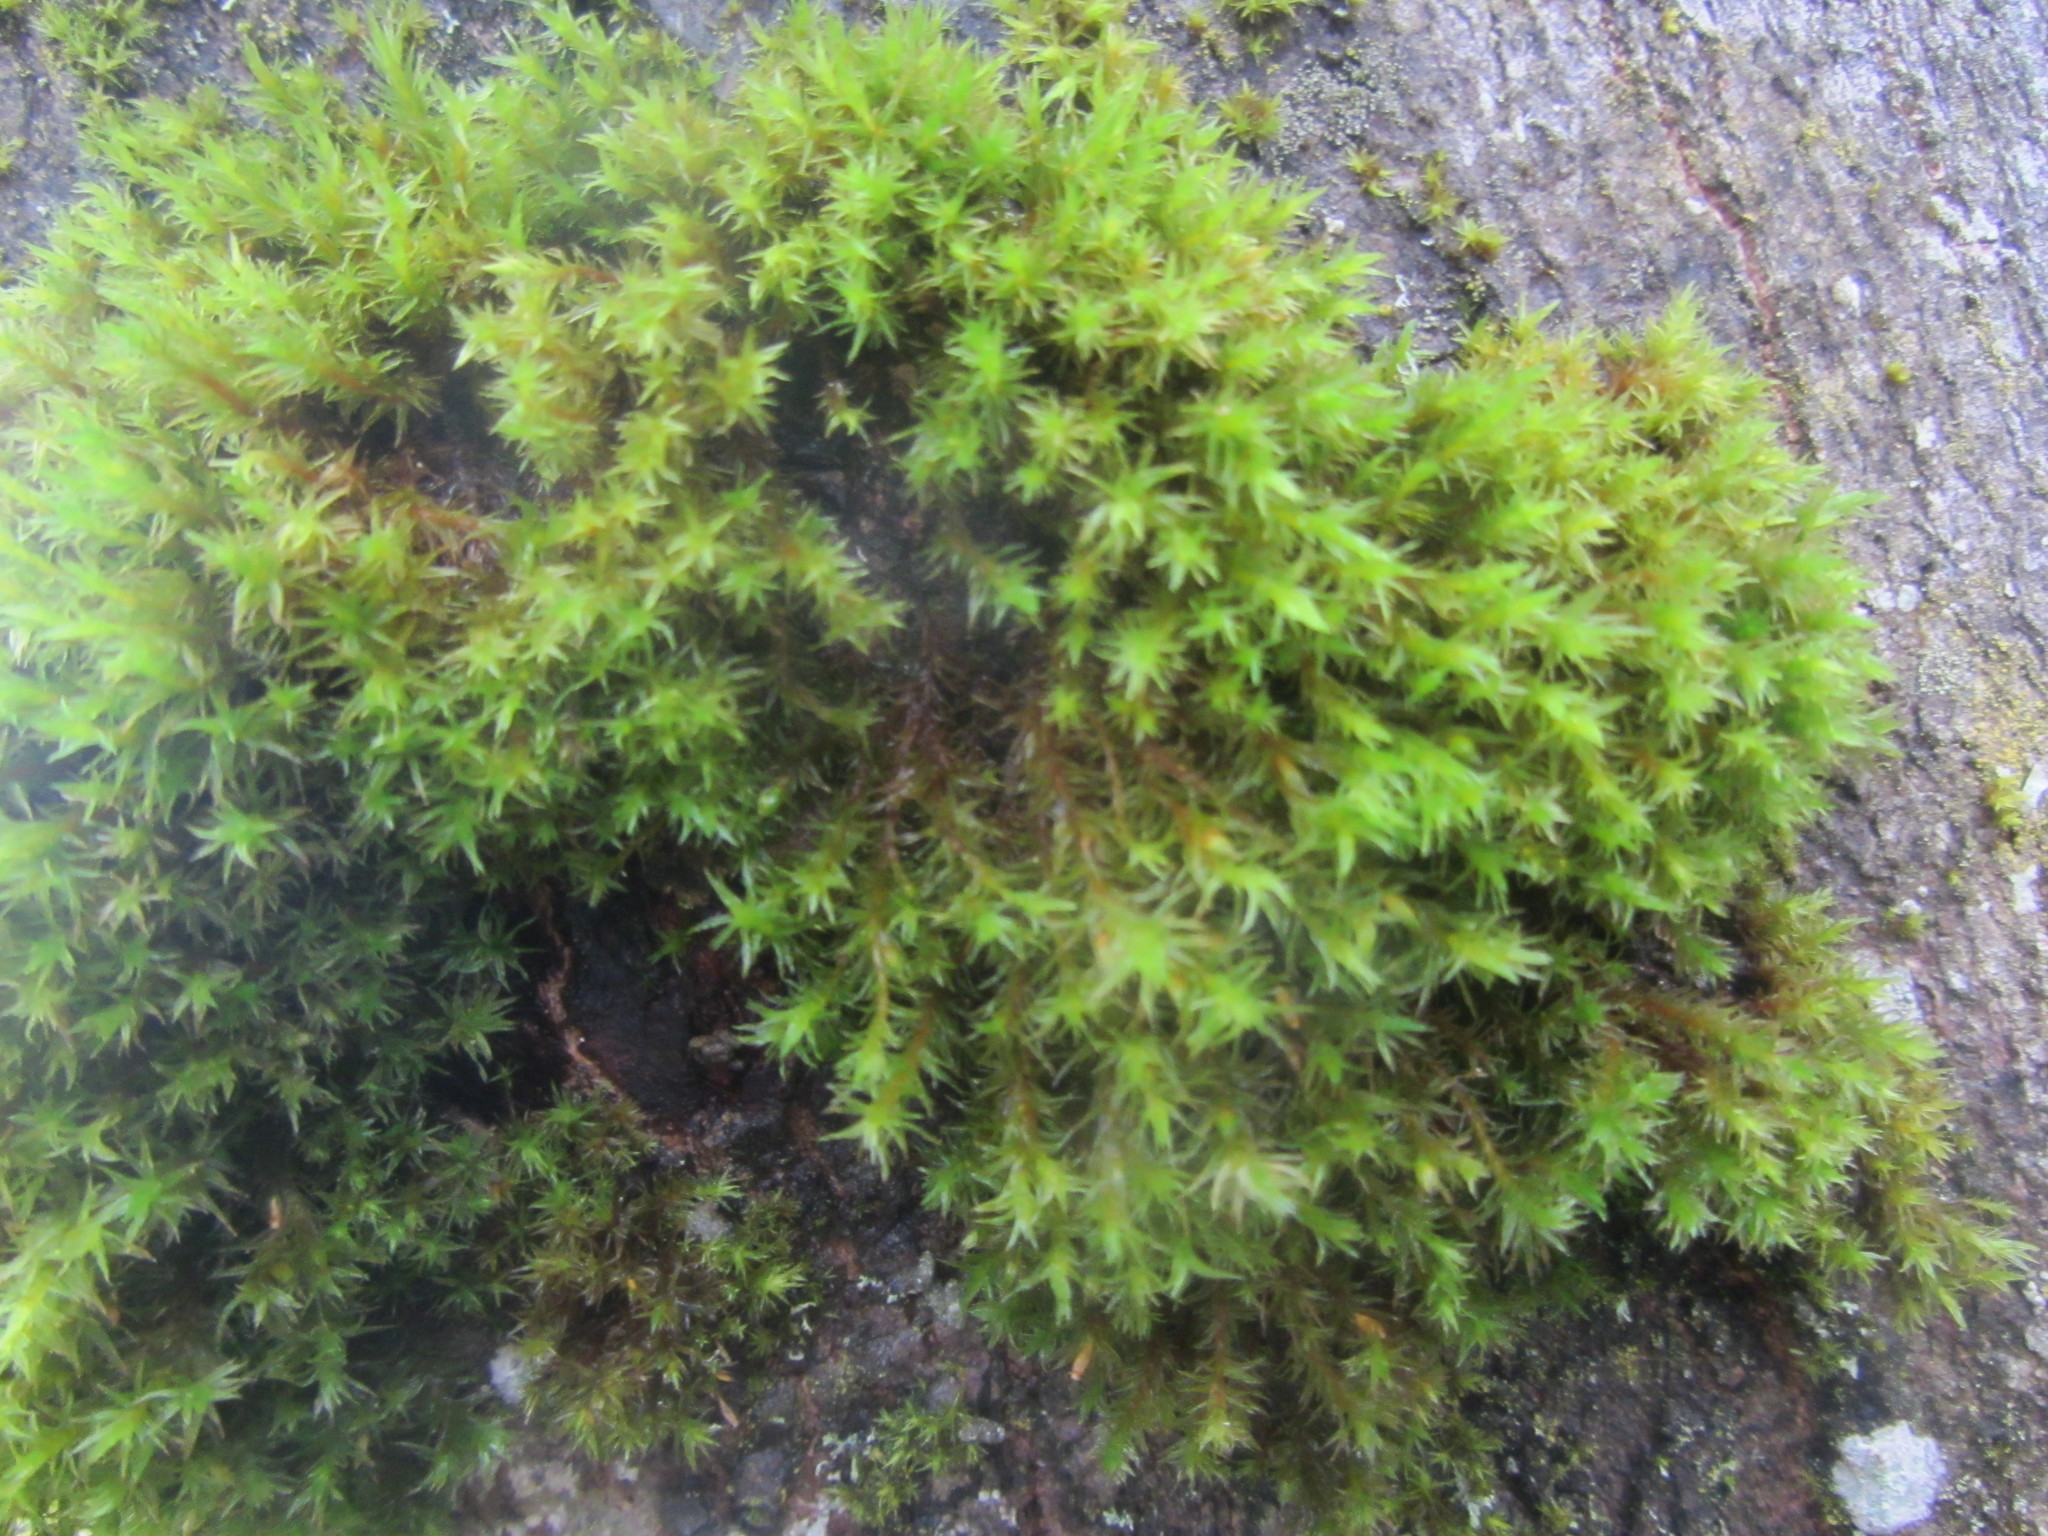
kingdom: Plantae
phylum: Bryophyta
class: Bryopsida
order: Hedwigiales
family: Hedwigiaceae
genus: Hedwigia
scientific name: Hedwigia ciliata
